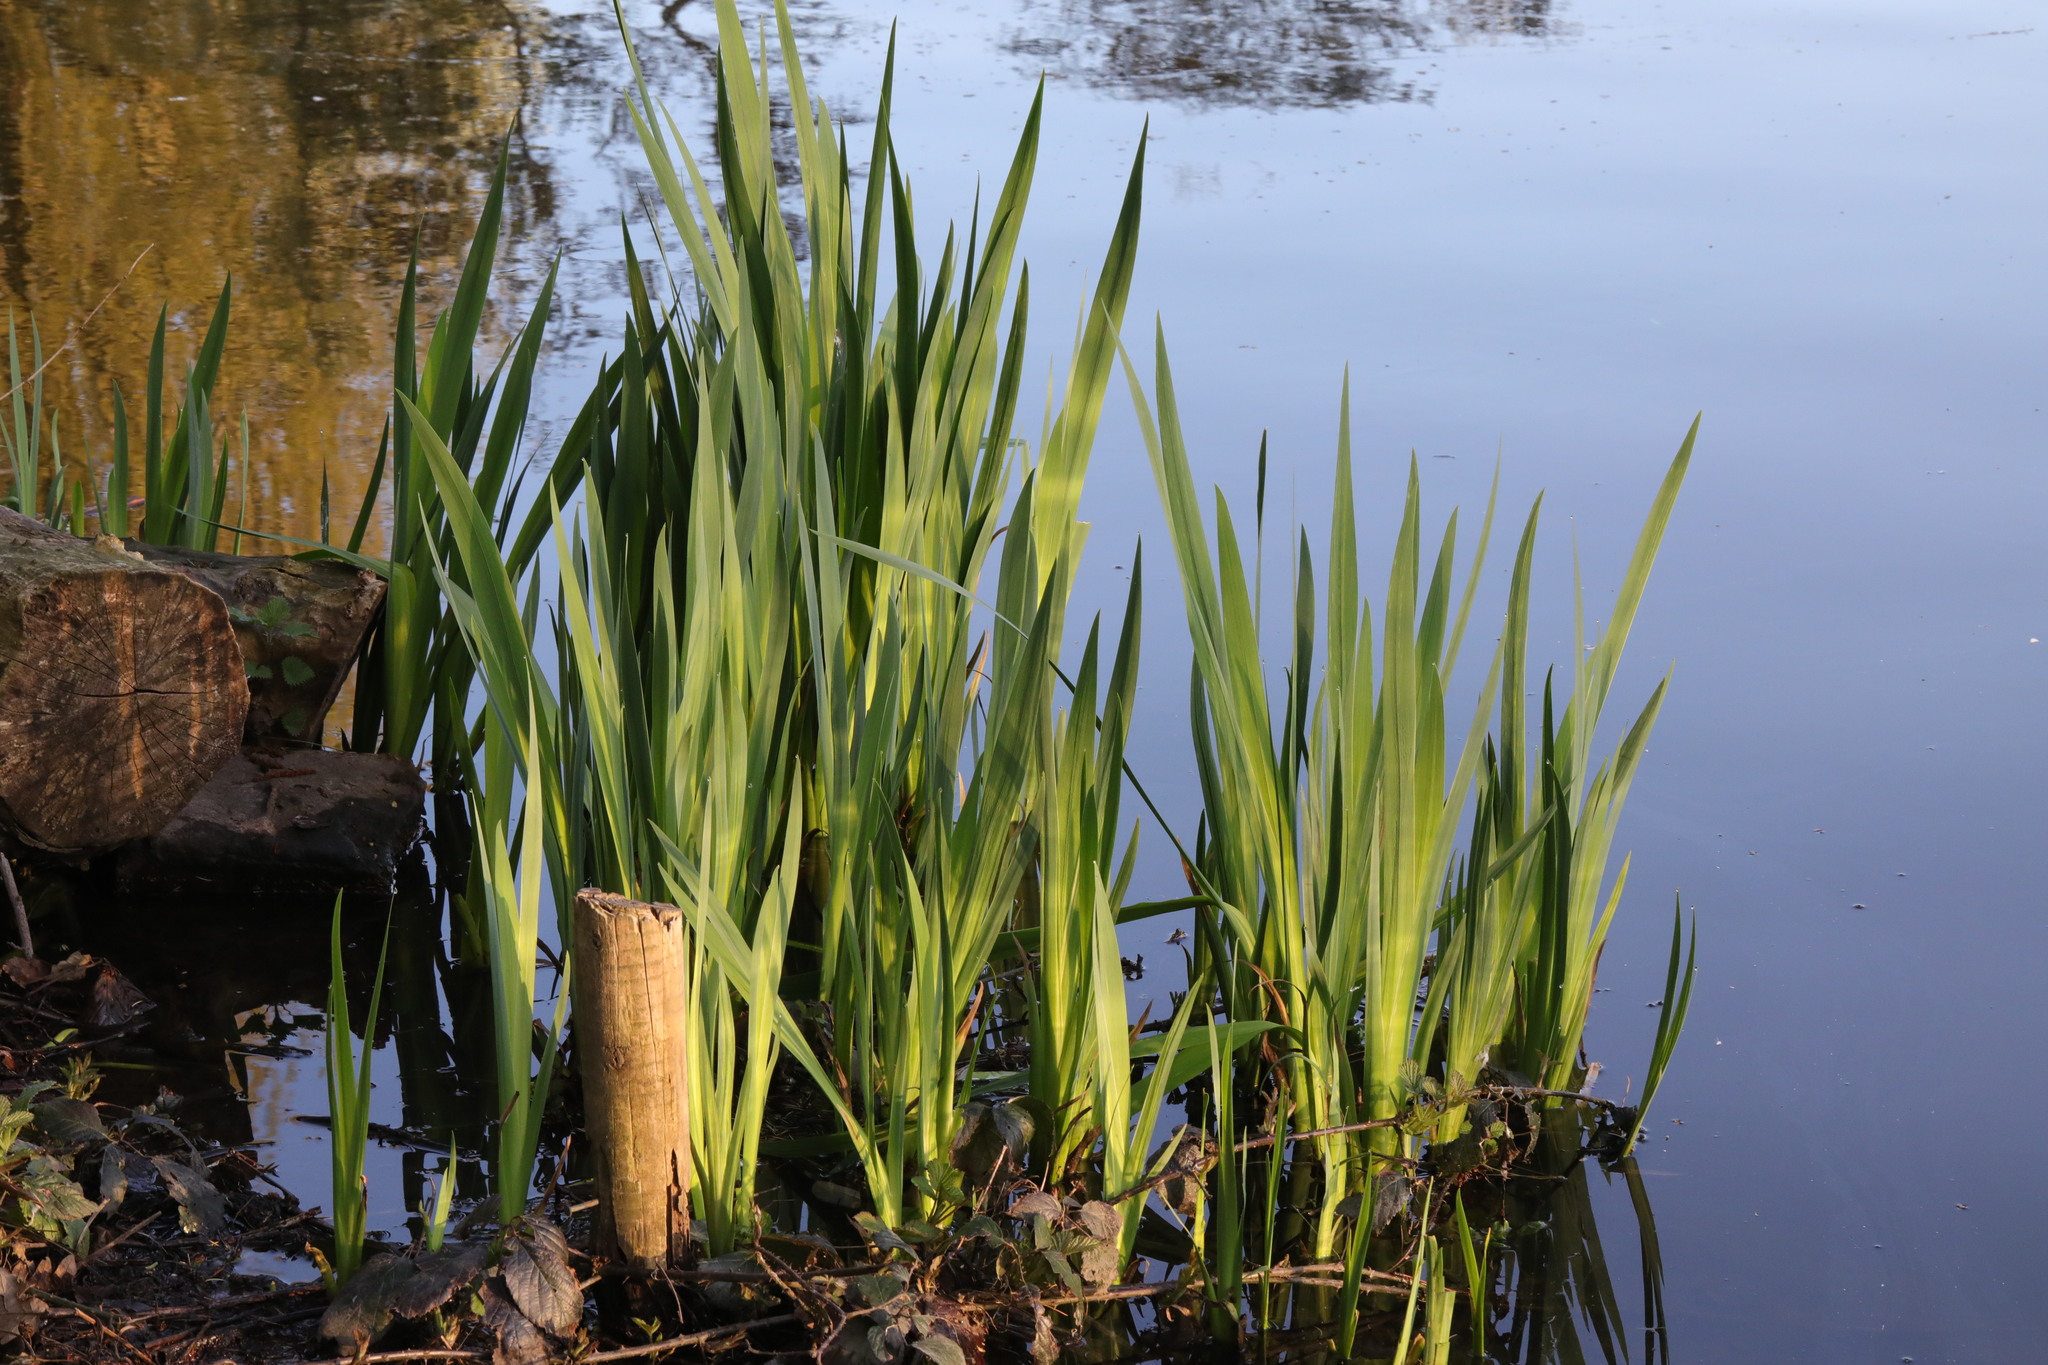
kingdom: Plantae
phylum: Tracheophyta
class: Liliopsida
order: Asparagales
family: Iridaceae
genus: Iris
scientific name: Iris pseudacorus
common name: Yellow flag
